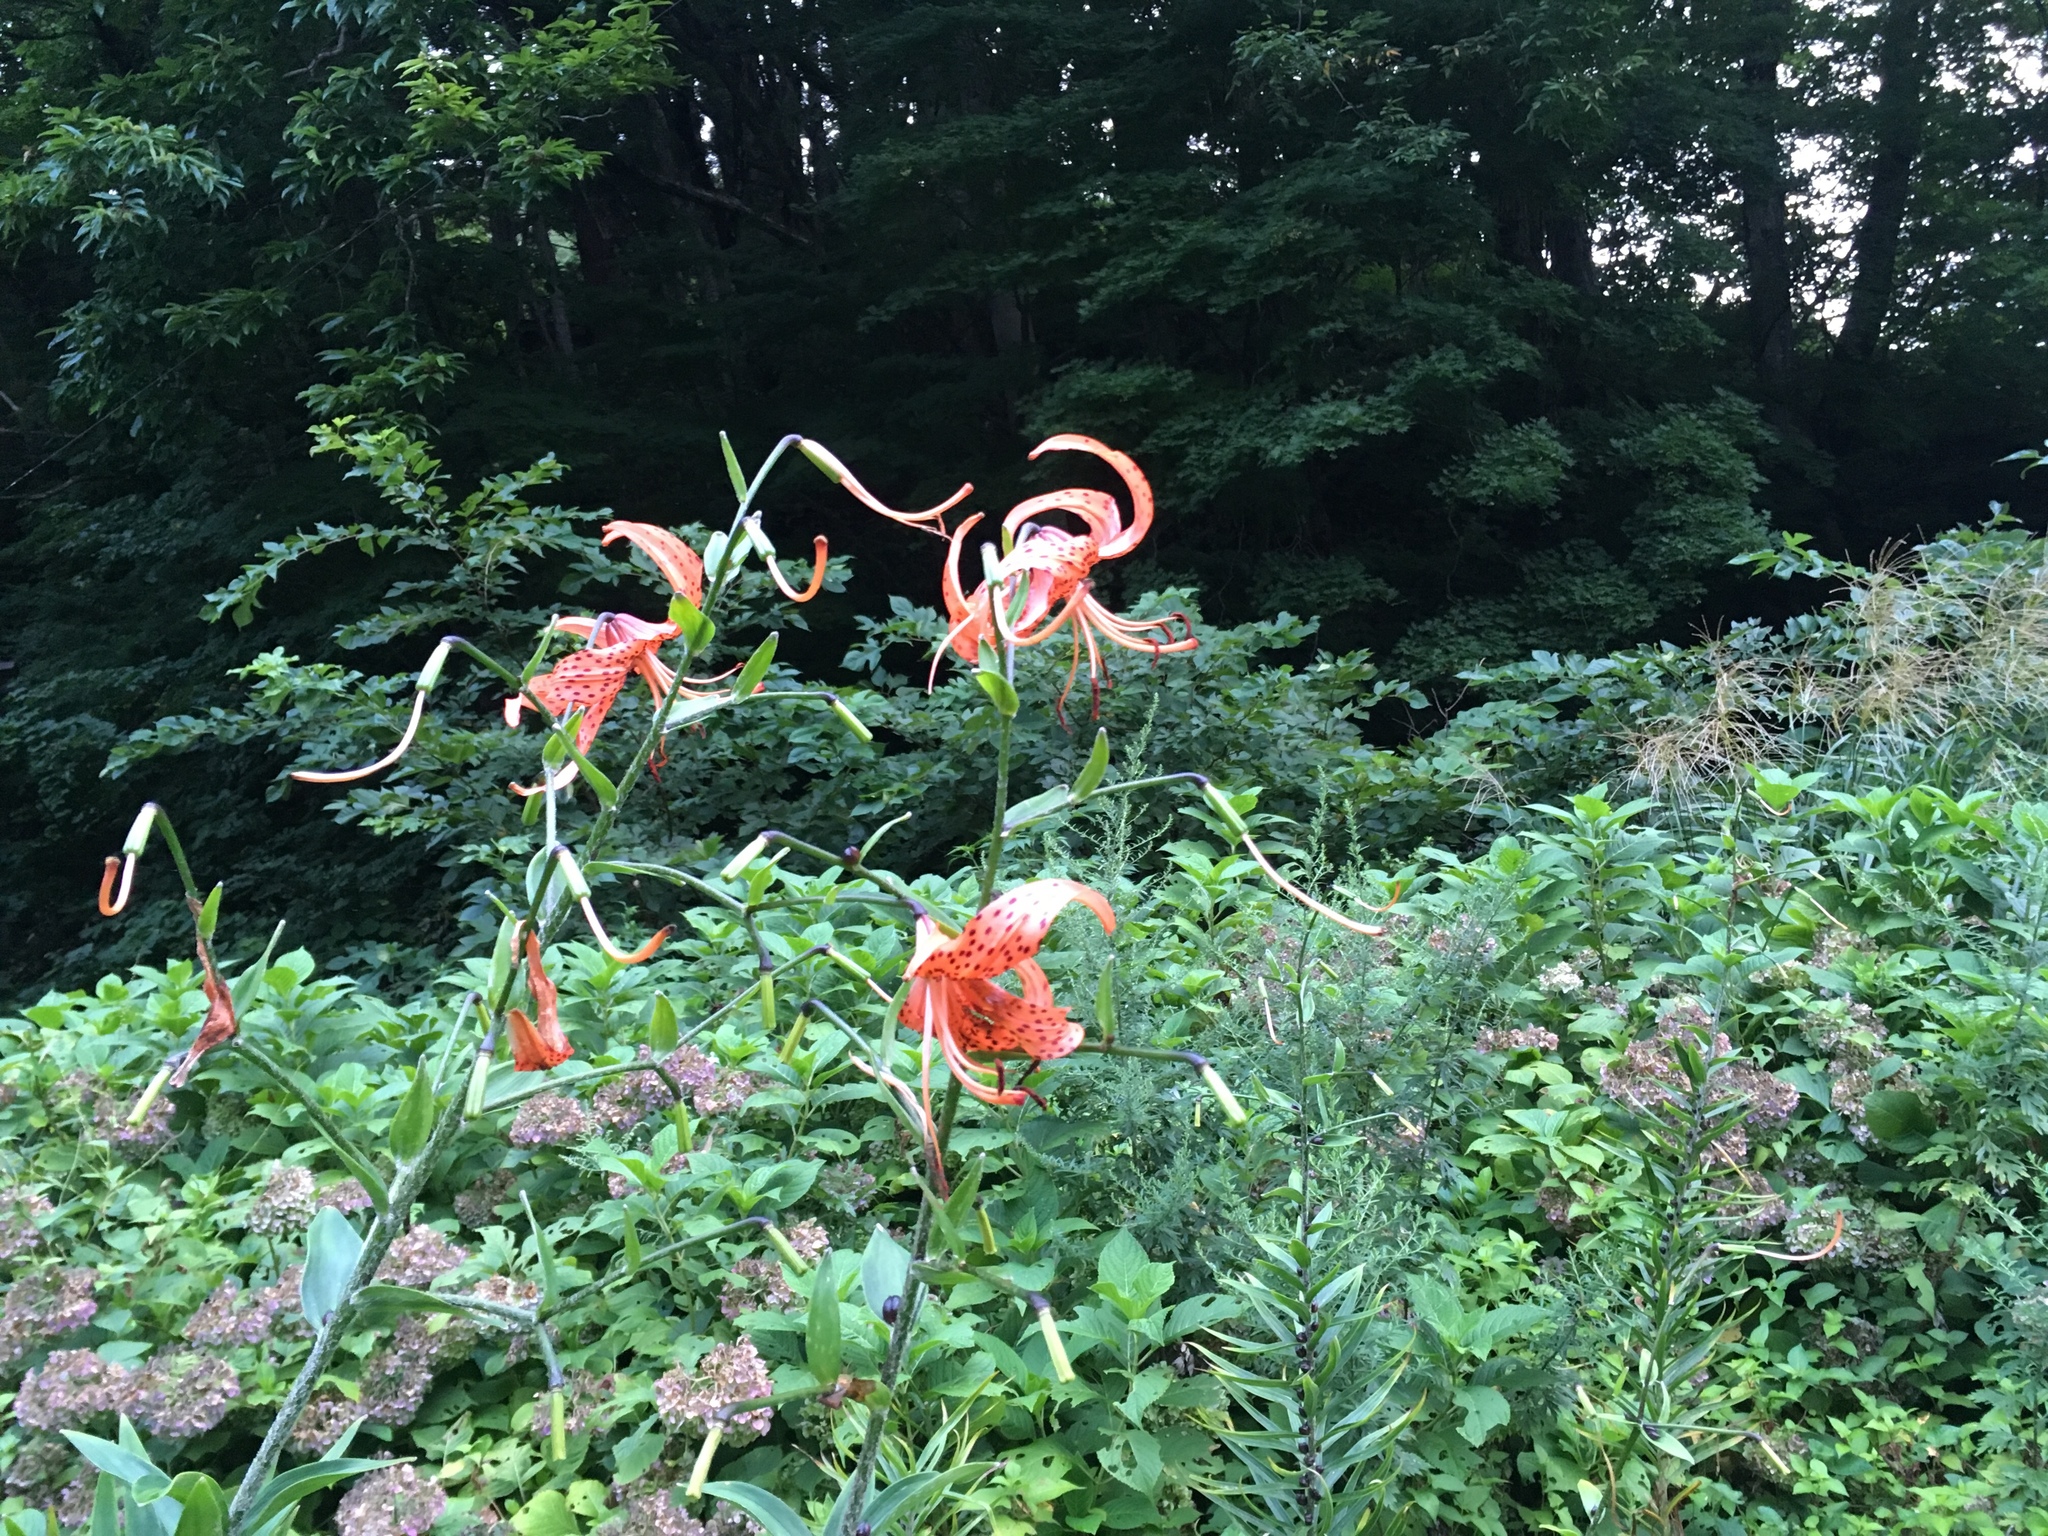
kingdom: Plantae
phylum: Tracheophyta
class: Liliopsida
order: Liliales
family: Liliaceae
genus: Lilium
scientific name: Lilium lancifolium
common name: Tiger lily
